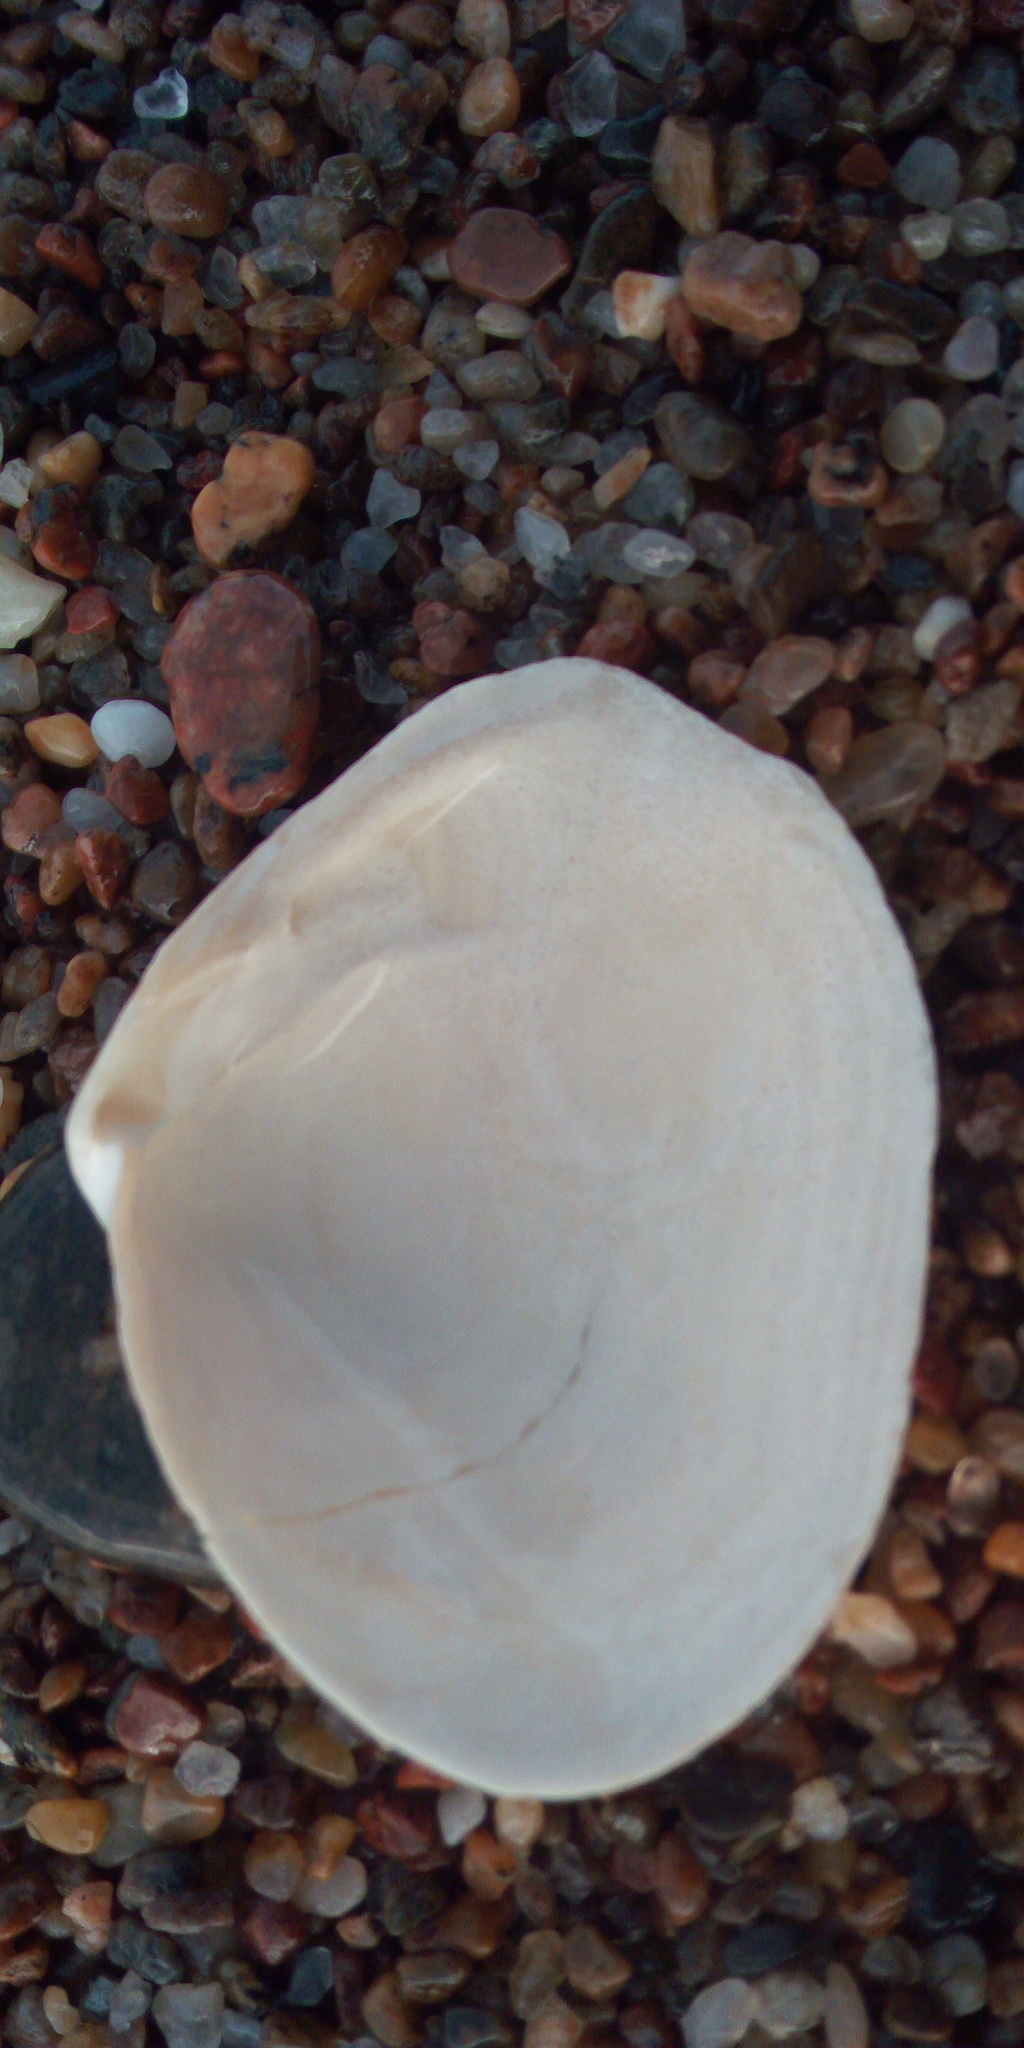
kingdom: Animalia
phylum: Mollusca
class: Bivalvia
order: Myida
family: Myidae
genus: Mya
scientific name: Mya arenaria
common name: Soft-shelled clam
